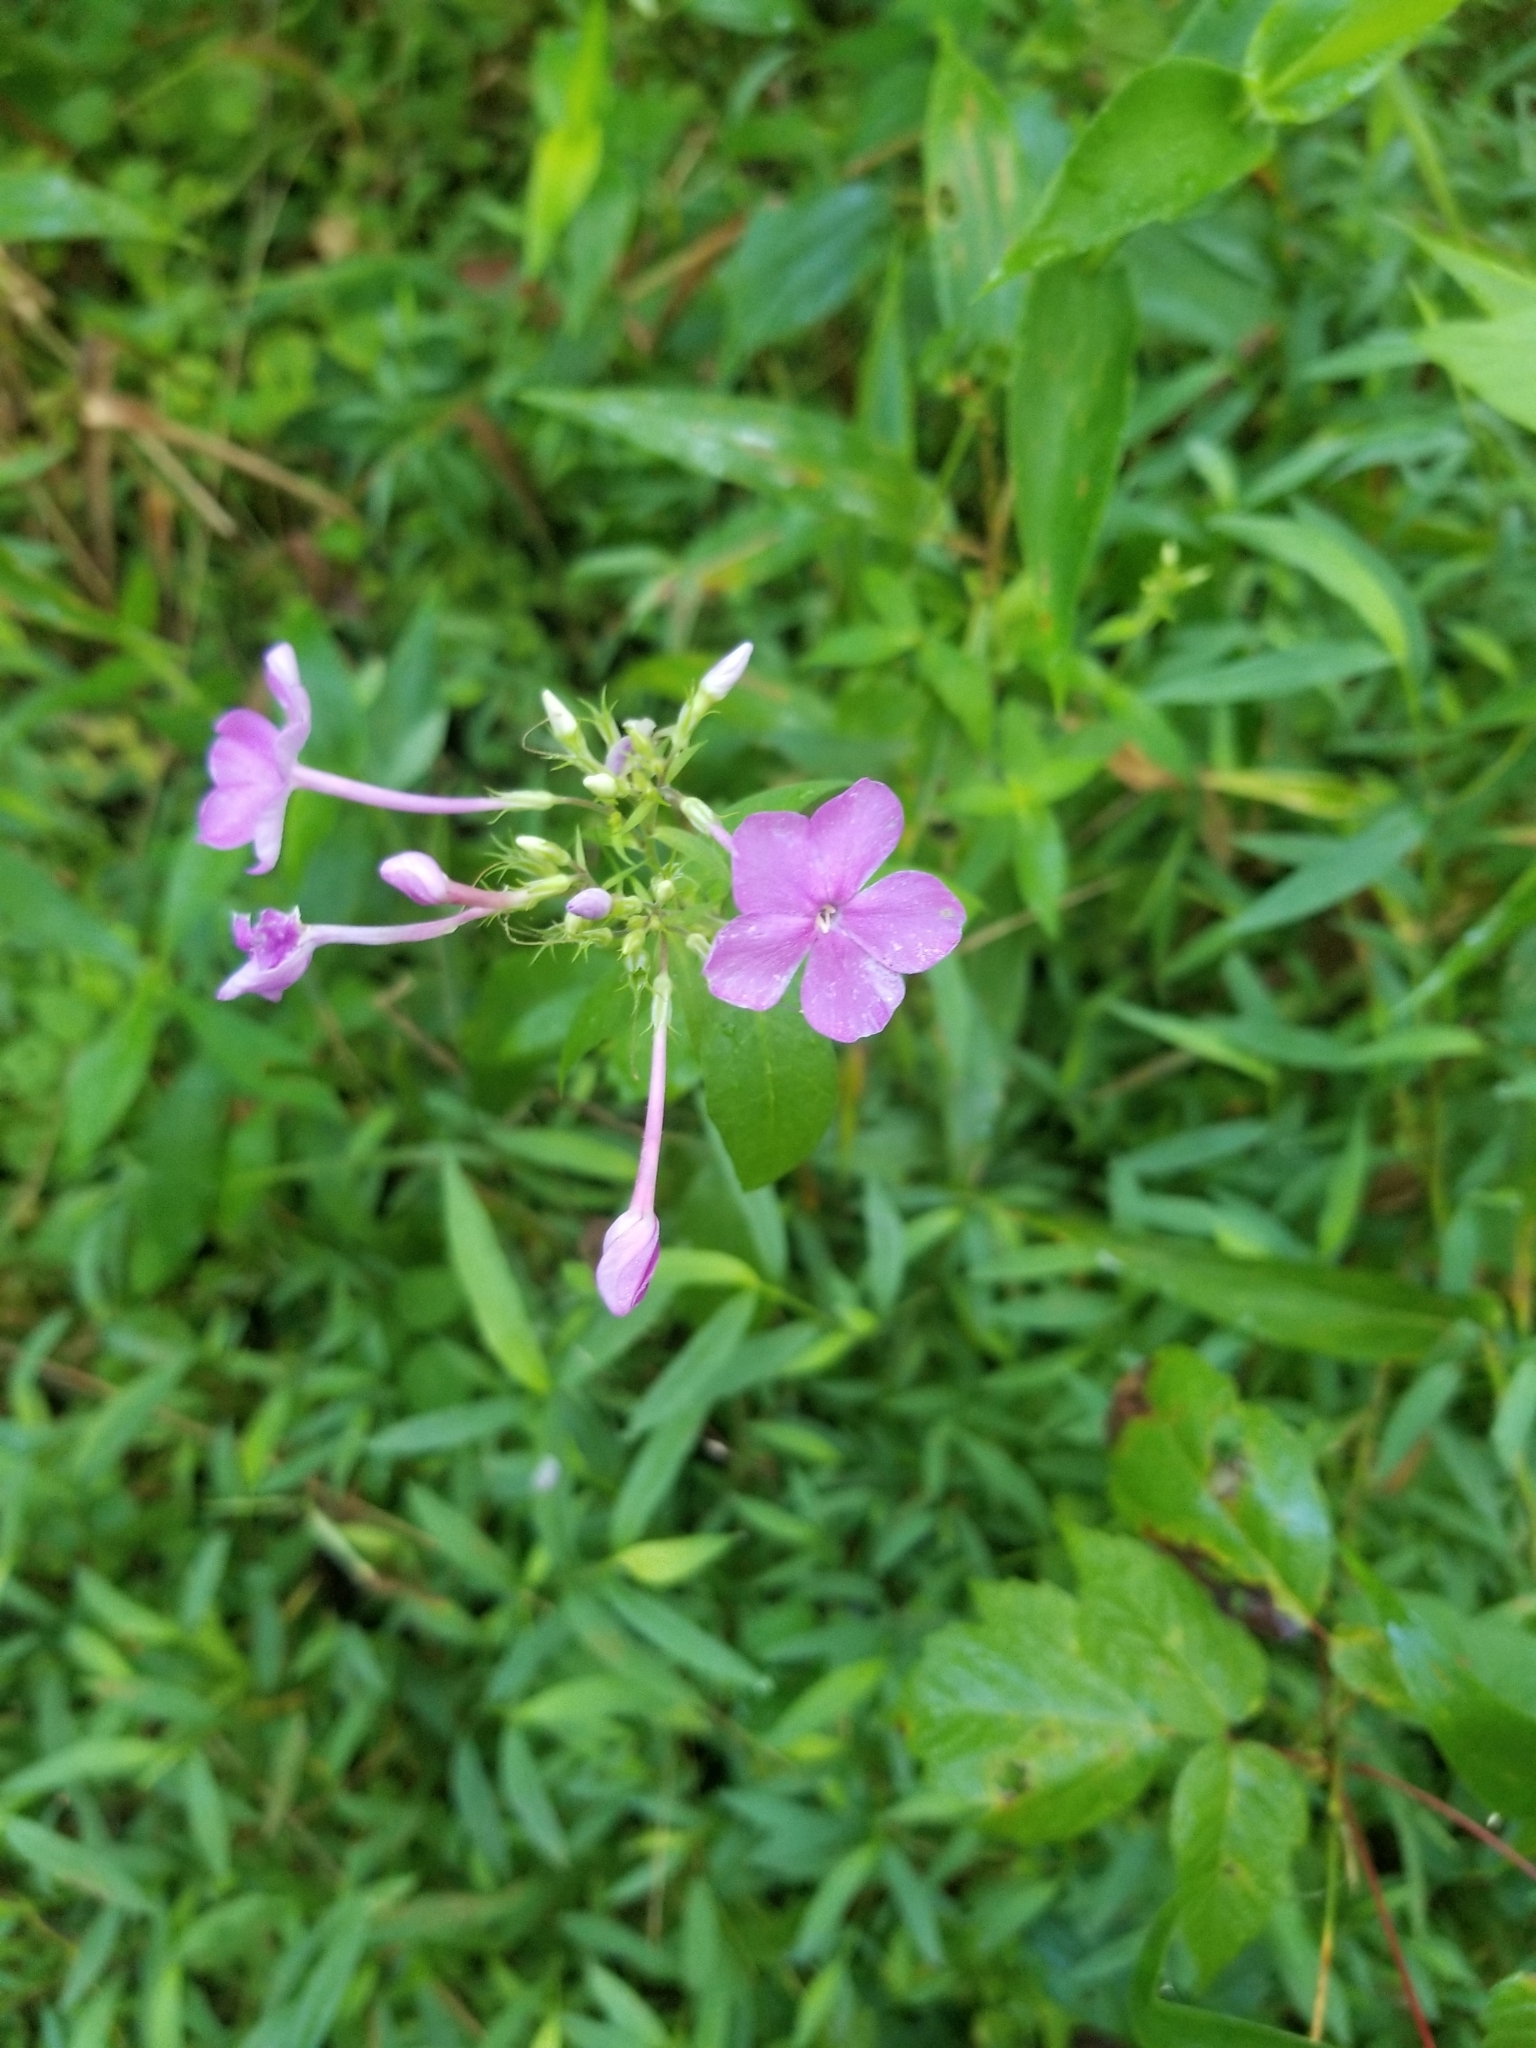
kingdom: Plantae
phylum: Tracheophyta
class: Magnoliopsida
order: Ericales
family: Polemoniaceae
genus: Phlox
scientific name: Phlox paniculata
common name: Fall phlox
